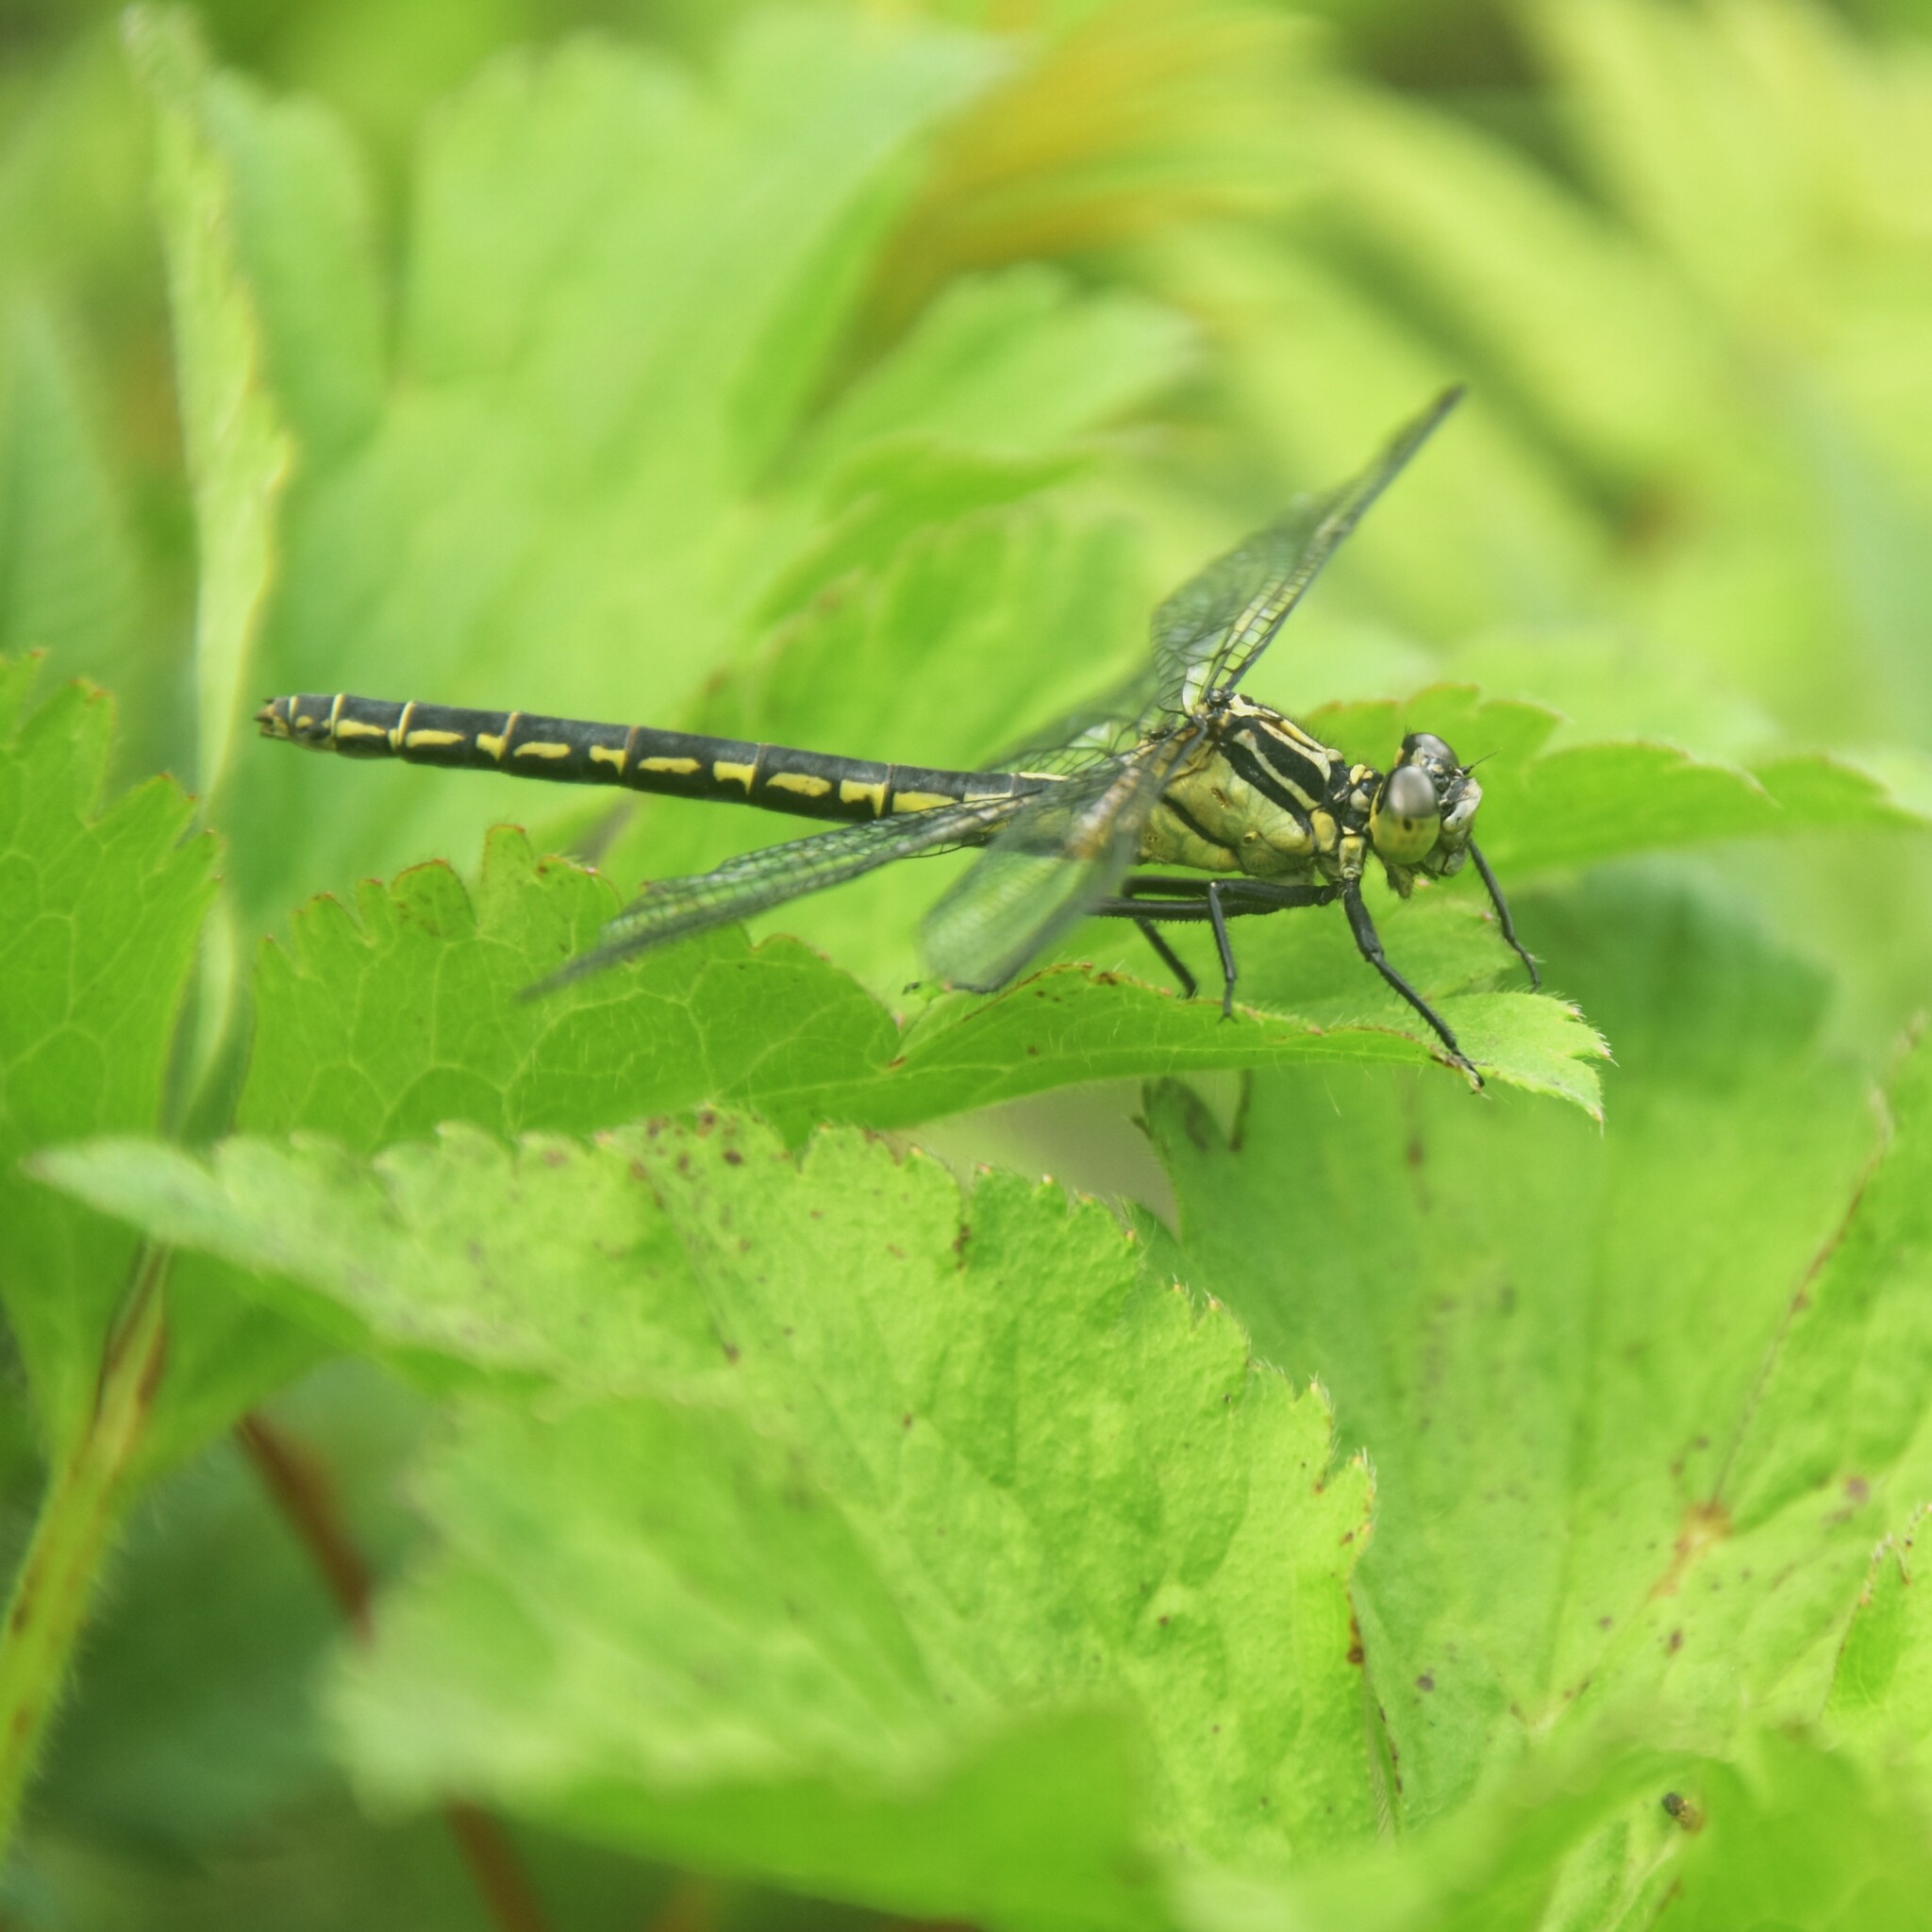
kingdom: Animalia
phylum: Arthropoda
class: Insecta
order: Odonata
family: Gomphidae
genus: Davidius
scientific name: Davidius aberrans
